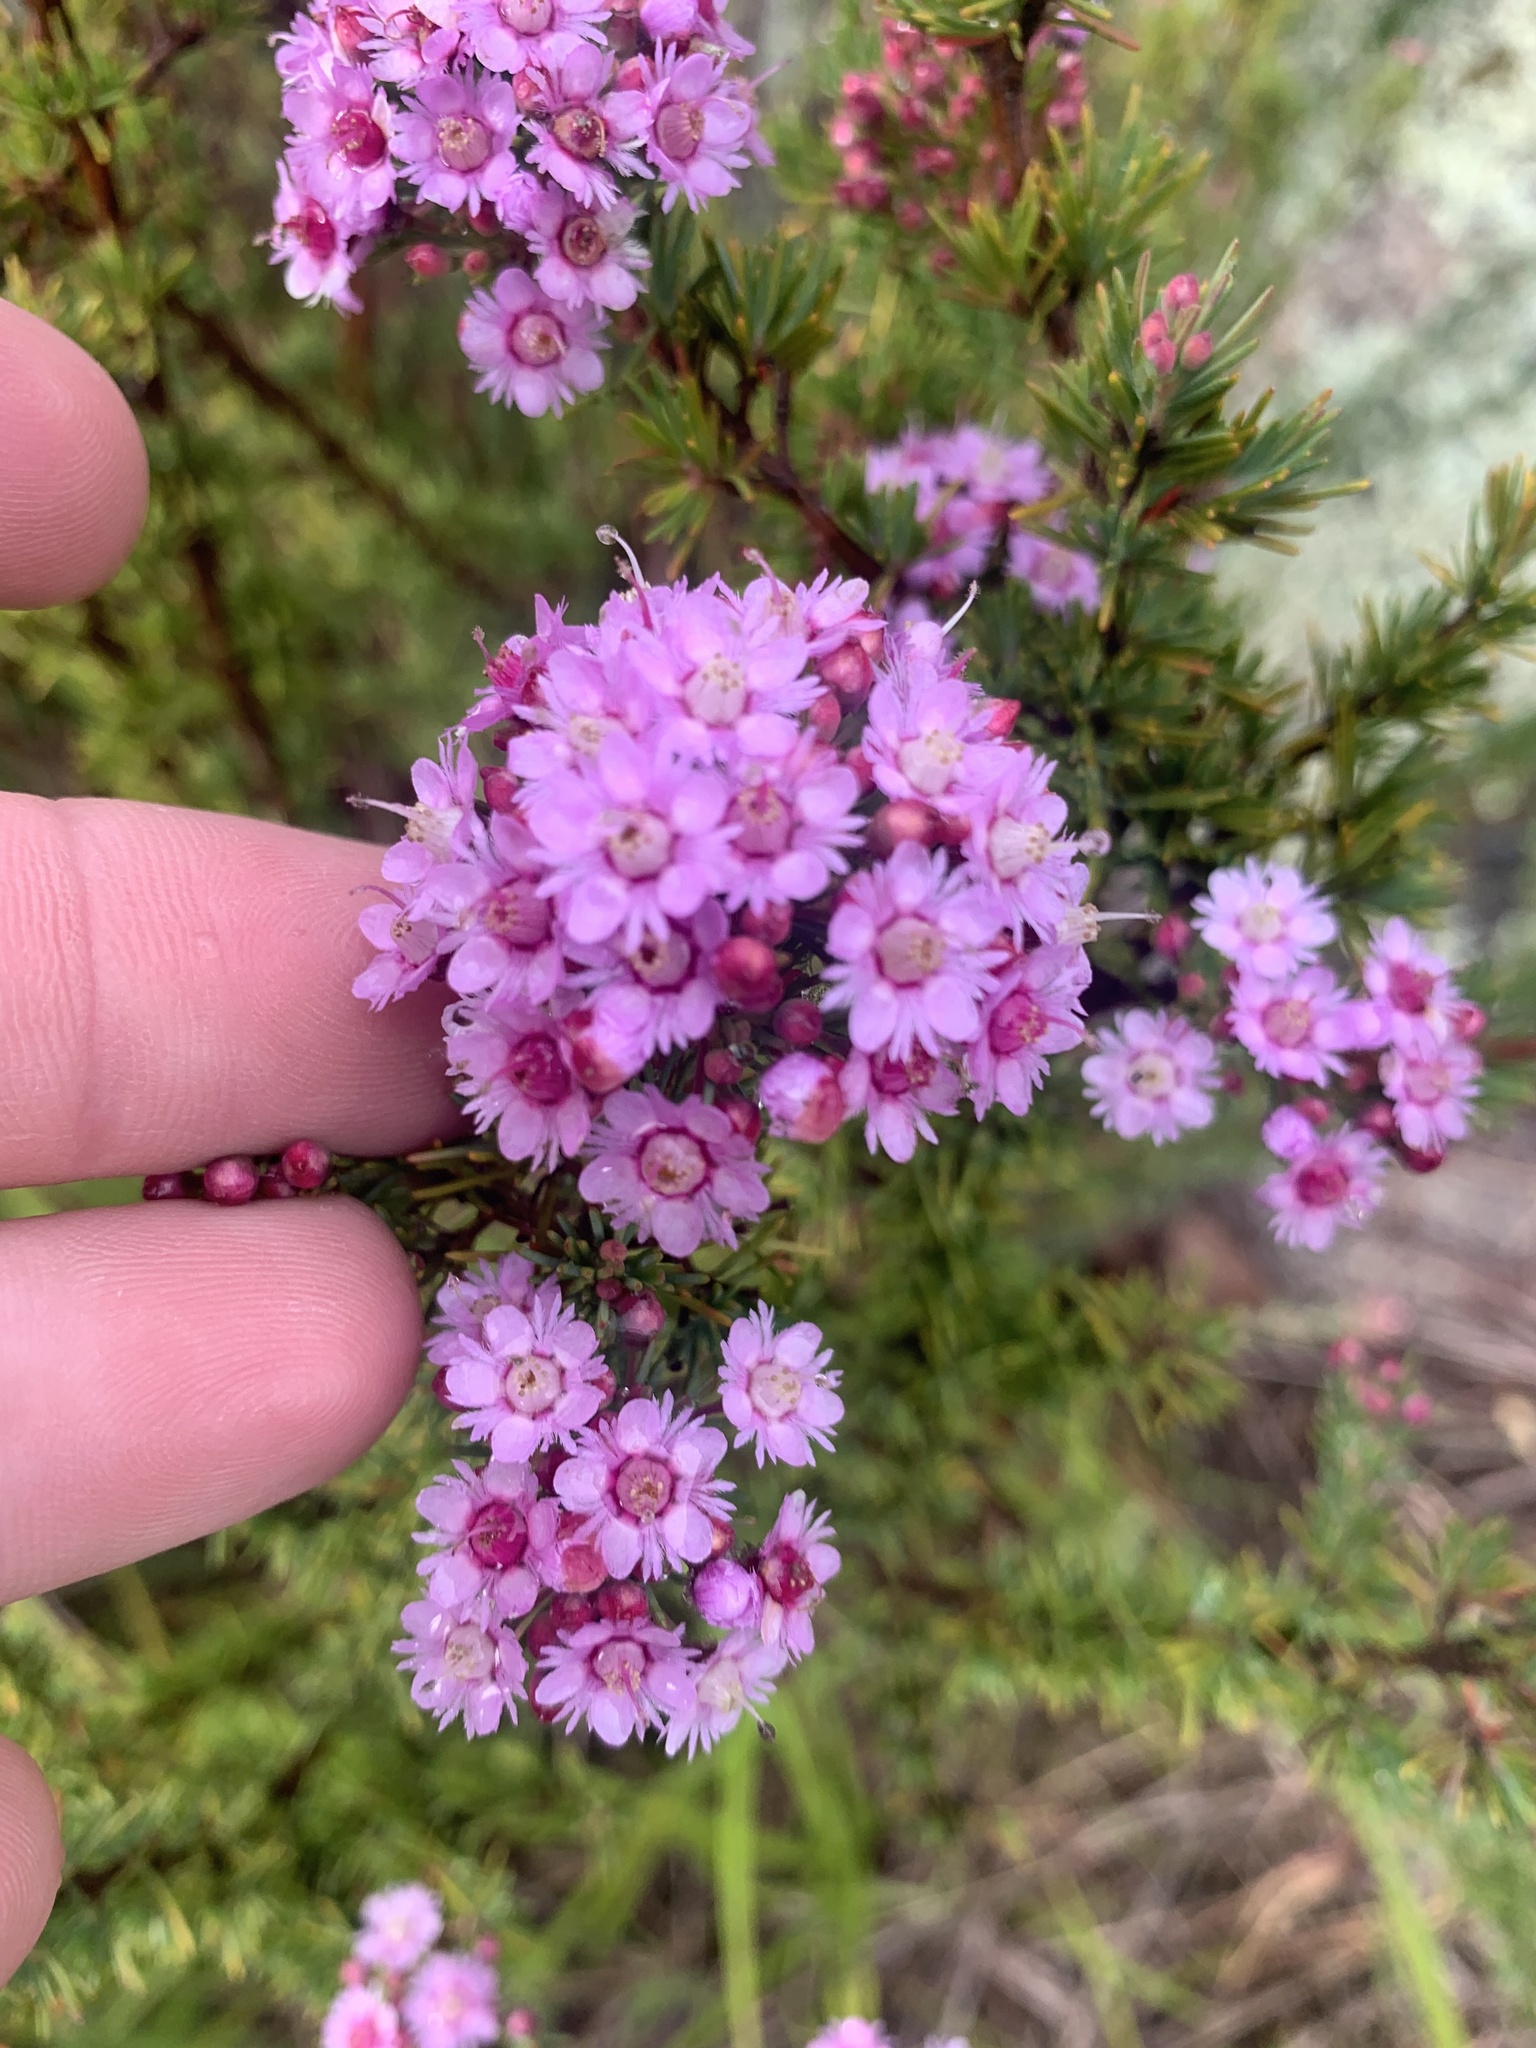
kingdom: Plantae
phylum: Tracheophyta
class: Magnoliopsida
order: Myrtales
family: Myrtaceae
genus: Verticordia
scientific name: Verticordia plumosa
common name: Plume feather-flower
